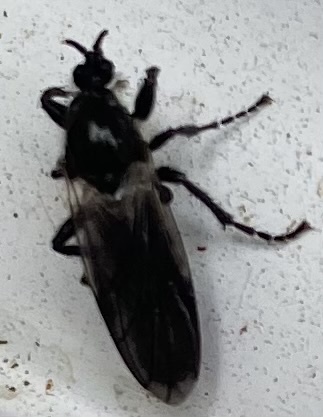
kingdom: Animalia
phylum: Arthropoda
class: Insecta
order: Diptera
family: Bibionidae
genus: Bibio
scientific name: Bibio albipennis
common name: White-winged march fly
